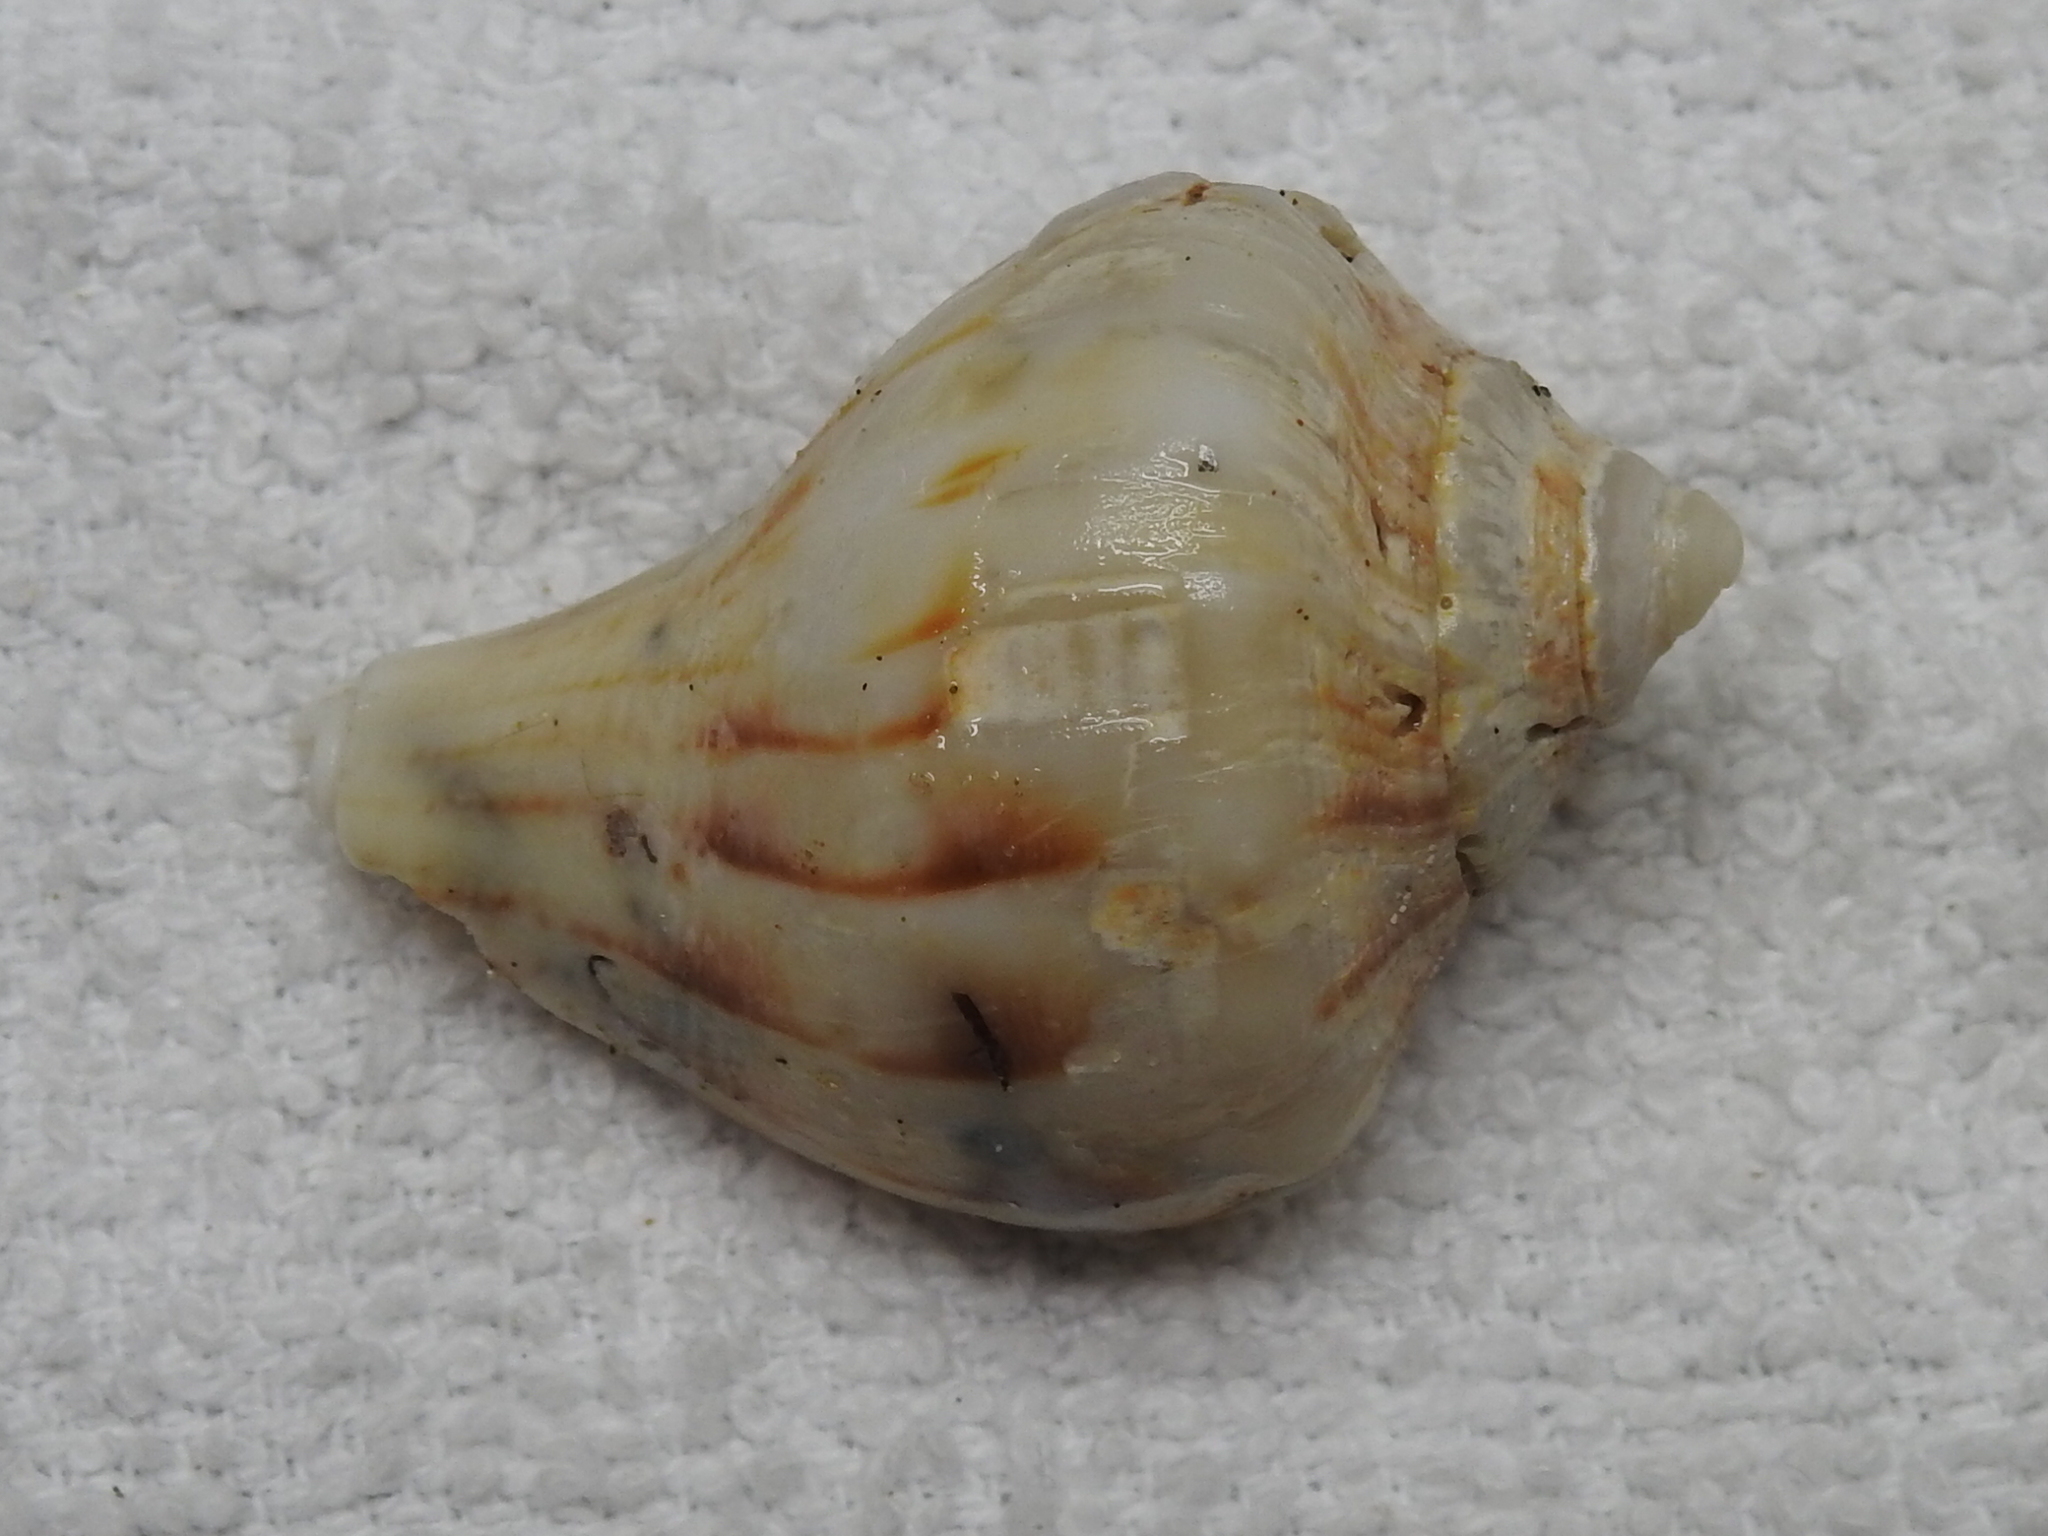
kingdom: Animalia
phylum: Mollusca
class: Gastropoda
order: Neogastropoda
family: Busyconidae
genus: Sinistrofulgur
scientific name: Sinistrofulgur pulleyi
